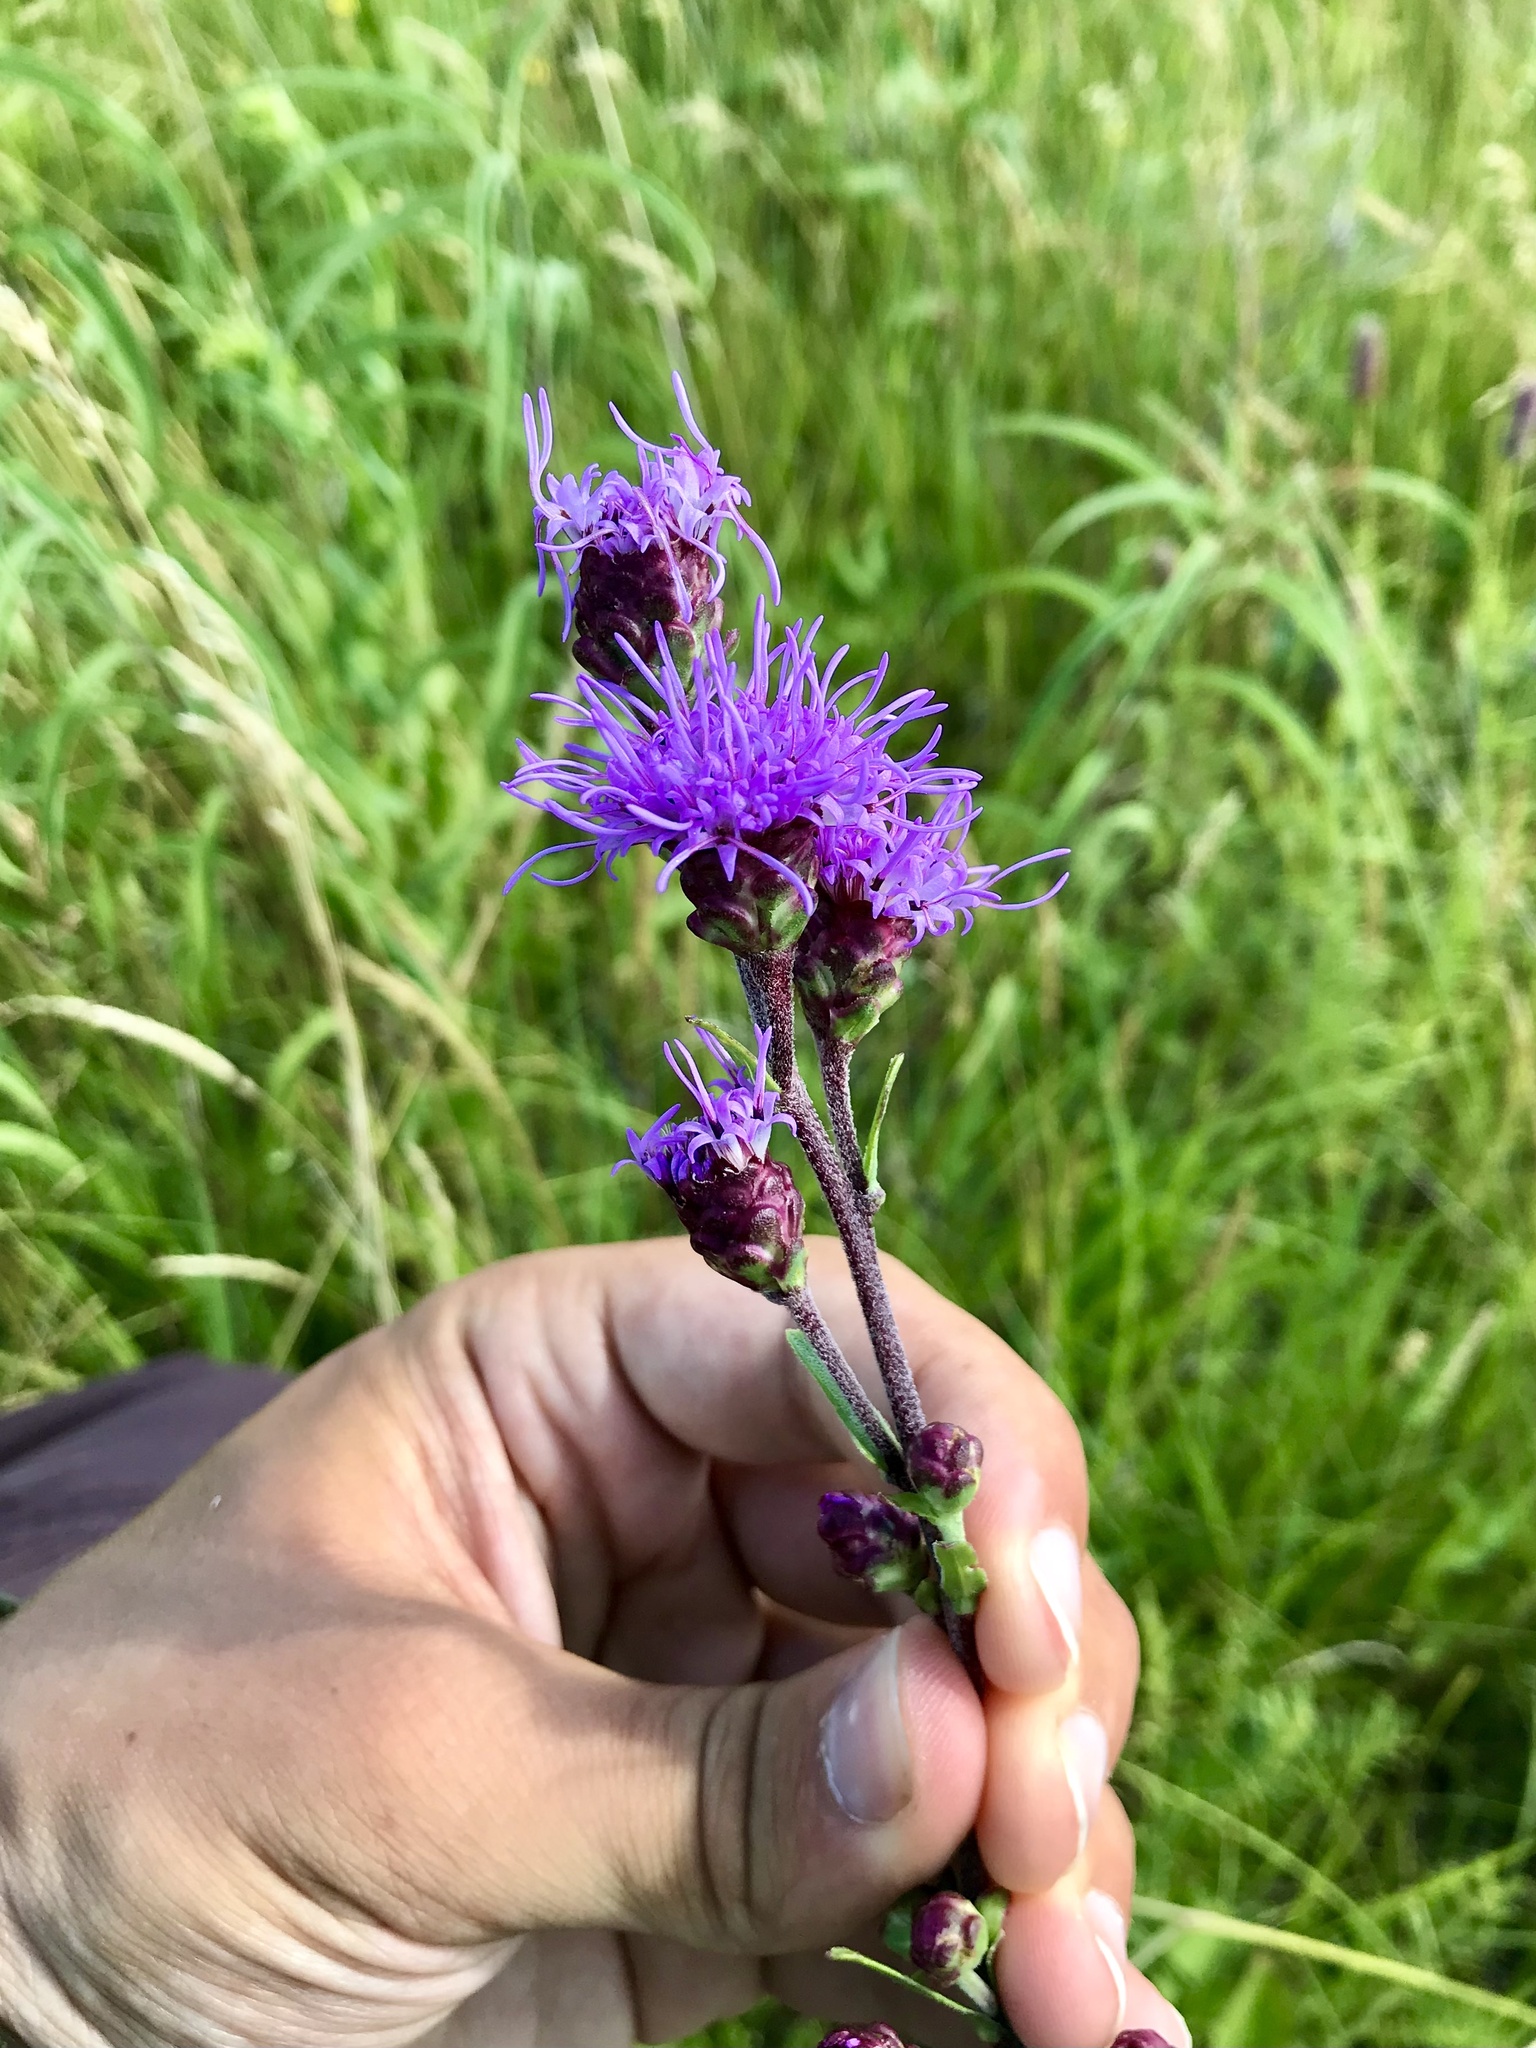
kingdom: Plantae
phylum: Tracheophyta
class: Magnoliopsida
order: Asterales
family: Asteraceae
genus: Liatris
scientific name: Liatris ligulistylis
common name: Northern plains gayfeather
